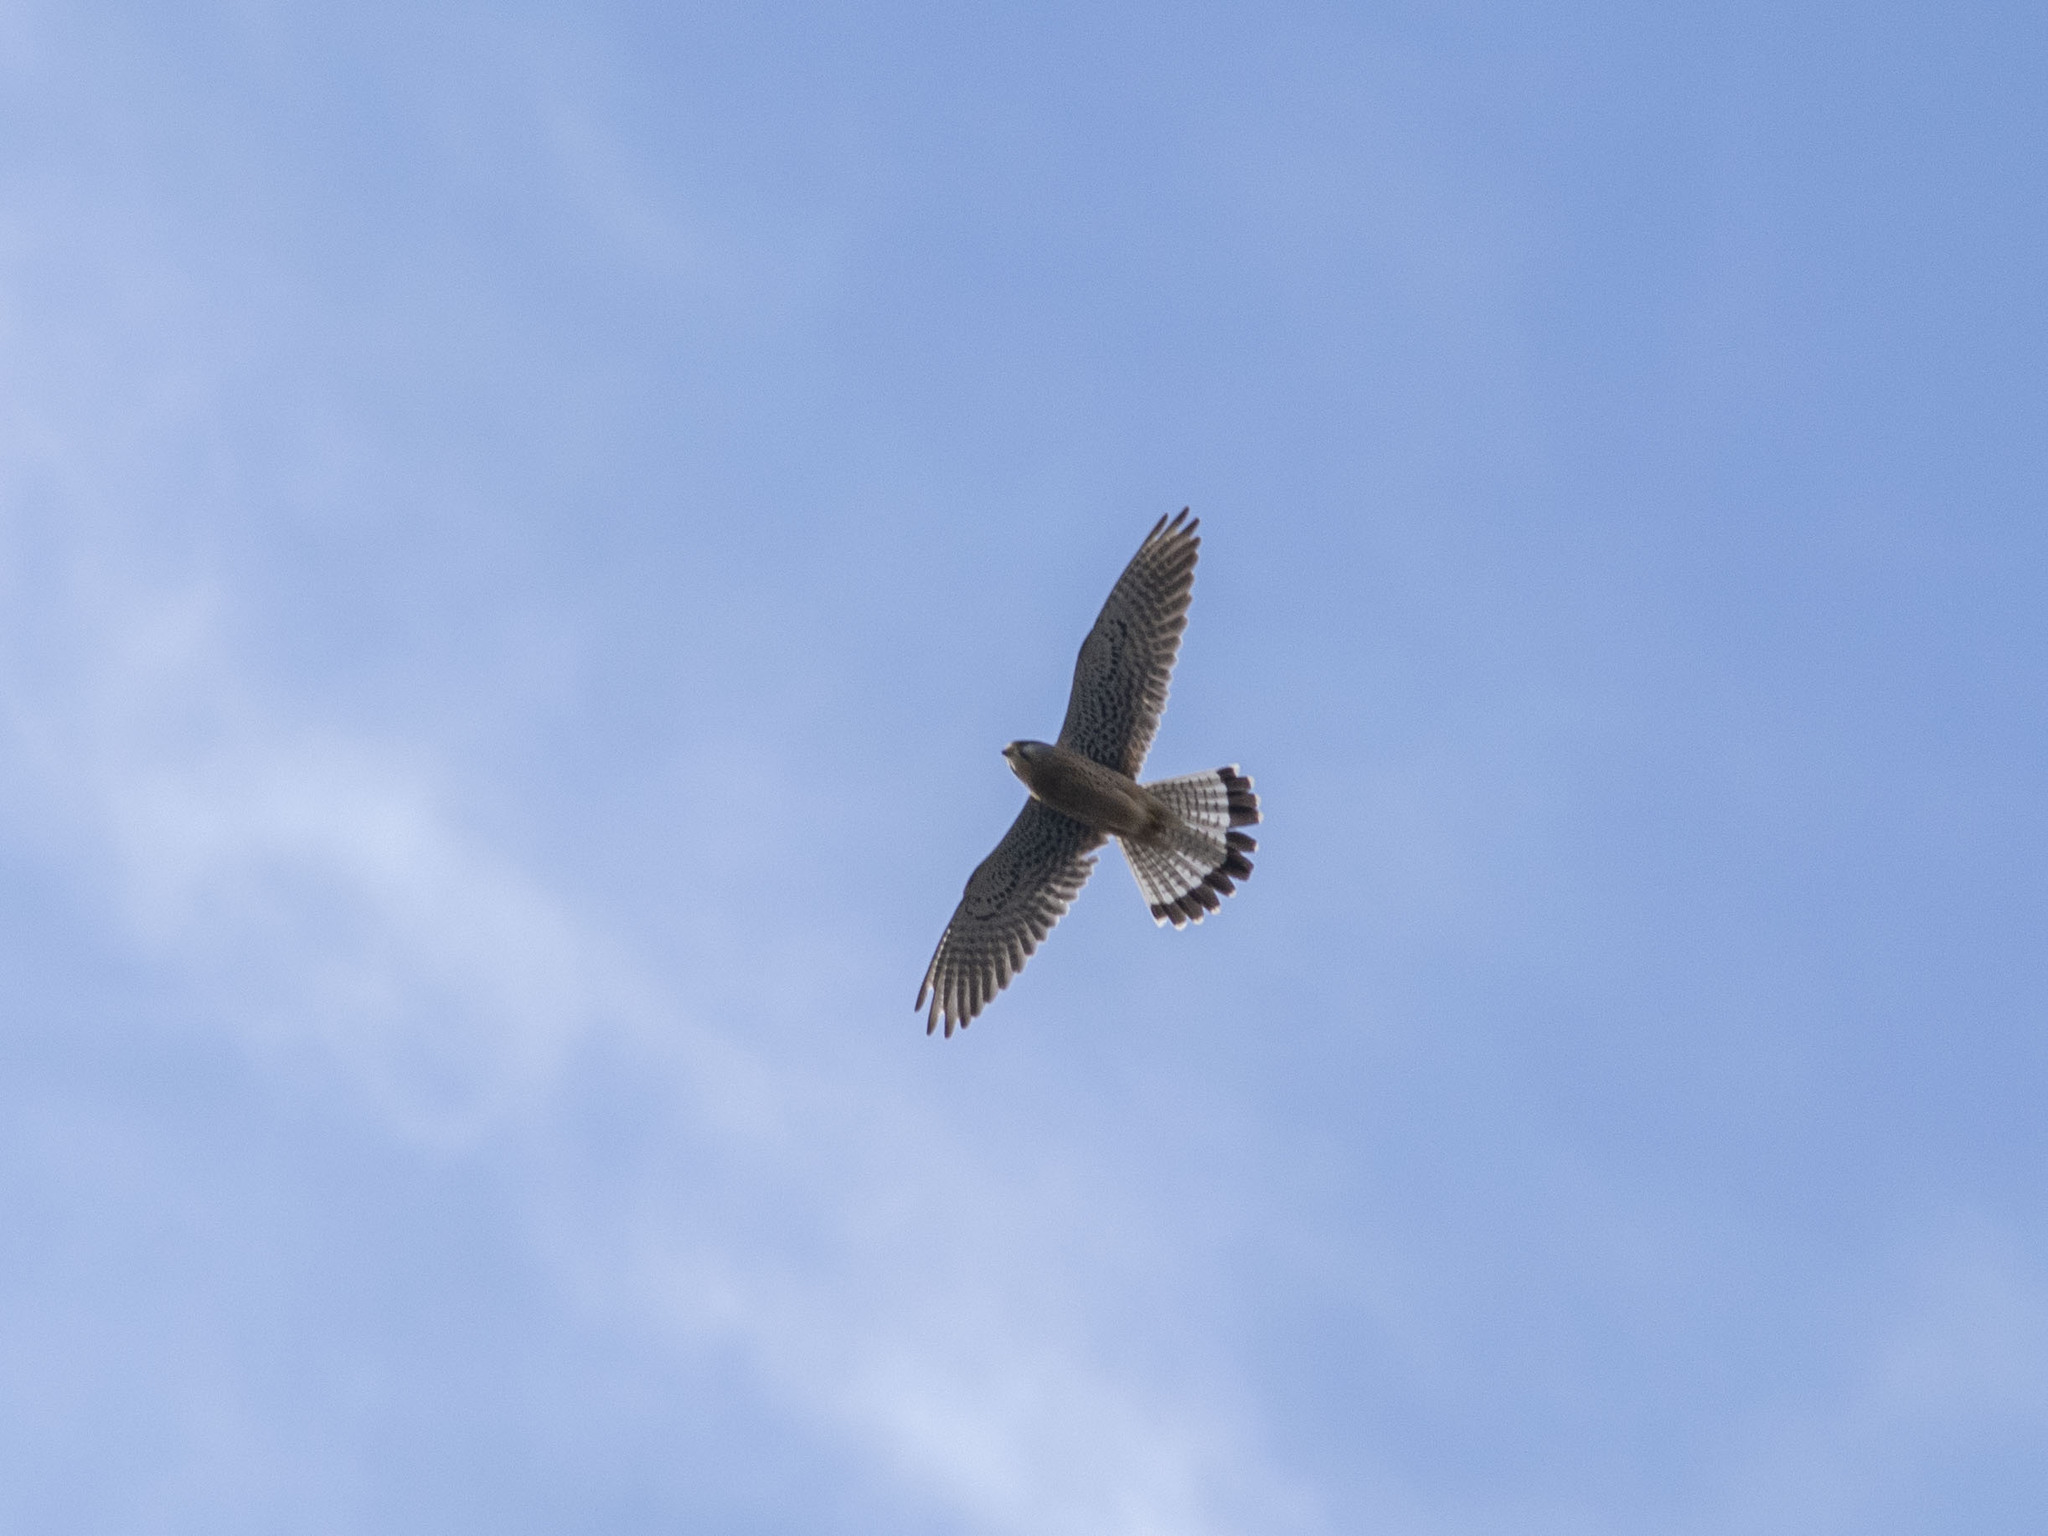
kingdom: Animalia
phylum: Chordata
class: Aves
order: Falconiformes
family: Falconidae
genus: Falco
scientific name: Falco tinnunculus
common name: Common kestrel
